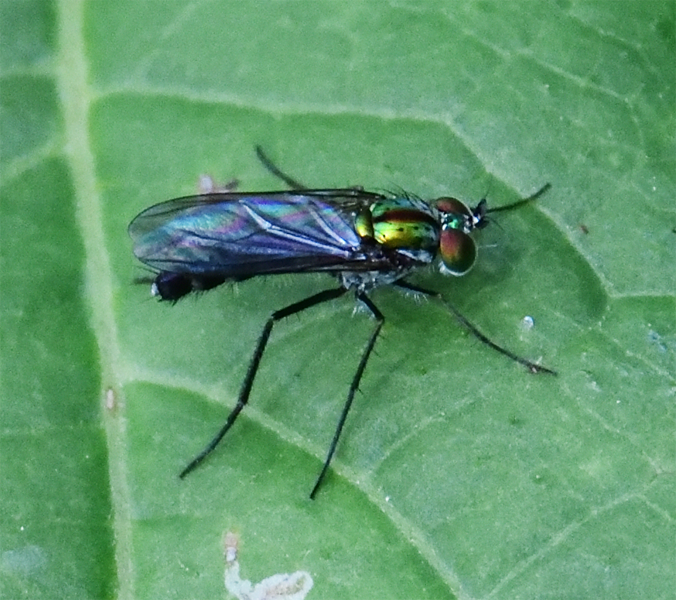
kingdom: Animalia
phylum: Arthropoda
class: Insecta
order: Diptera
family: Dolichopodidae
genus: Plagioneurus
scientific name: Plagioneurus univittatus
